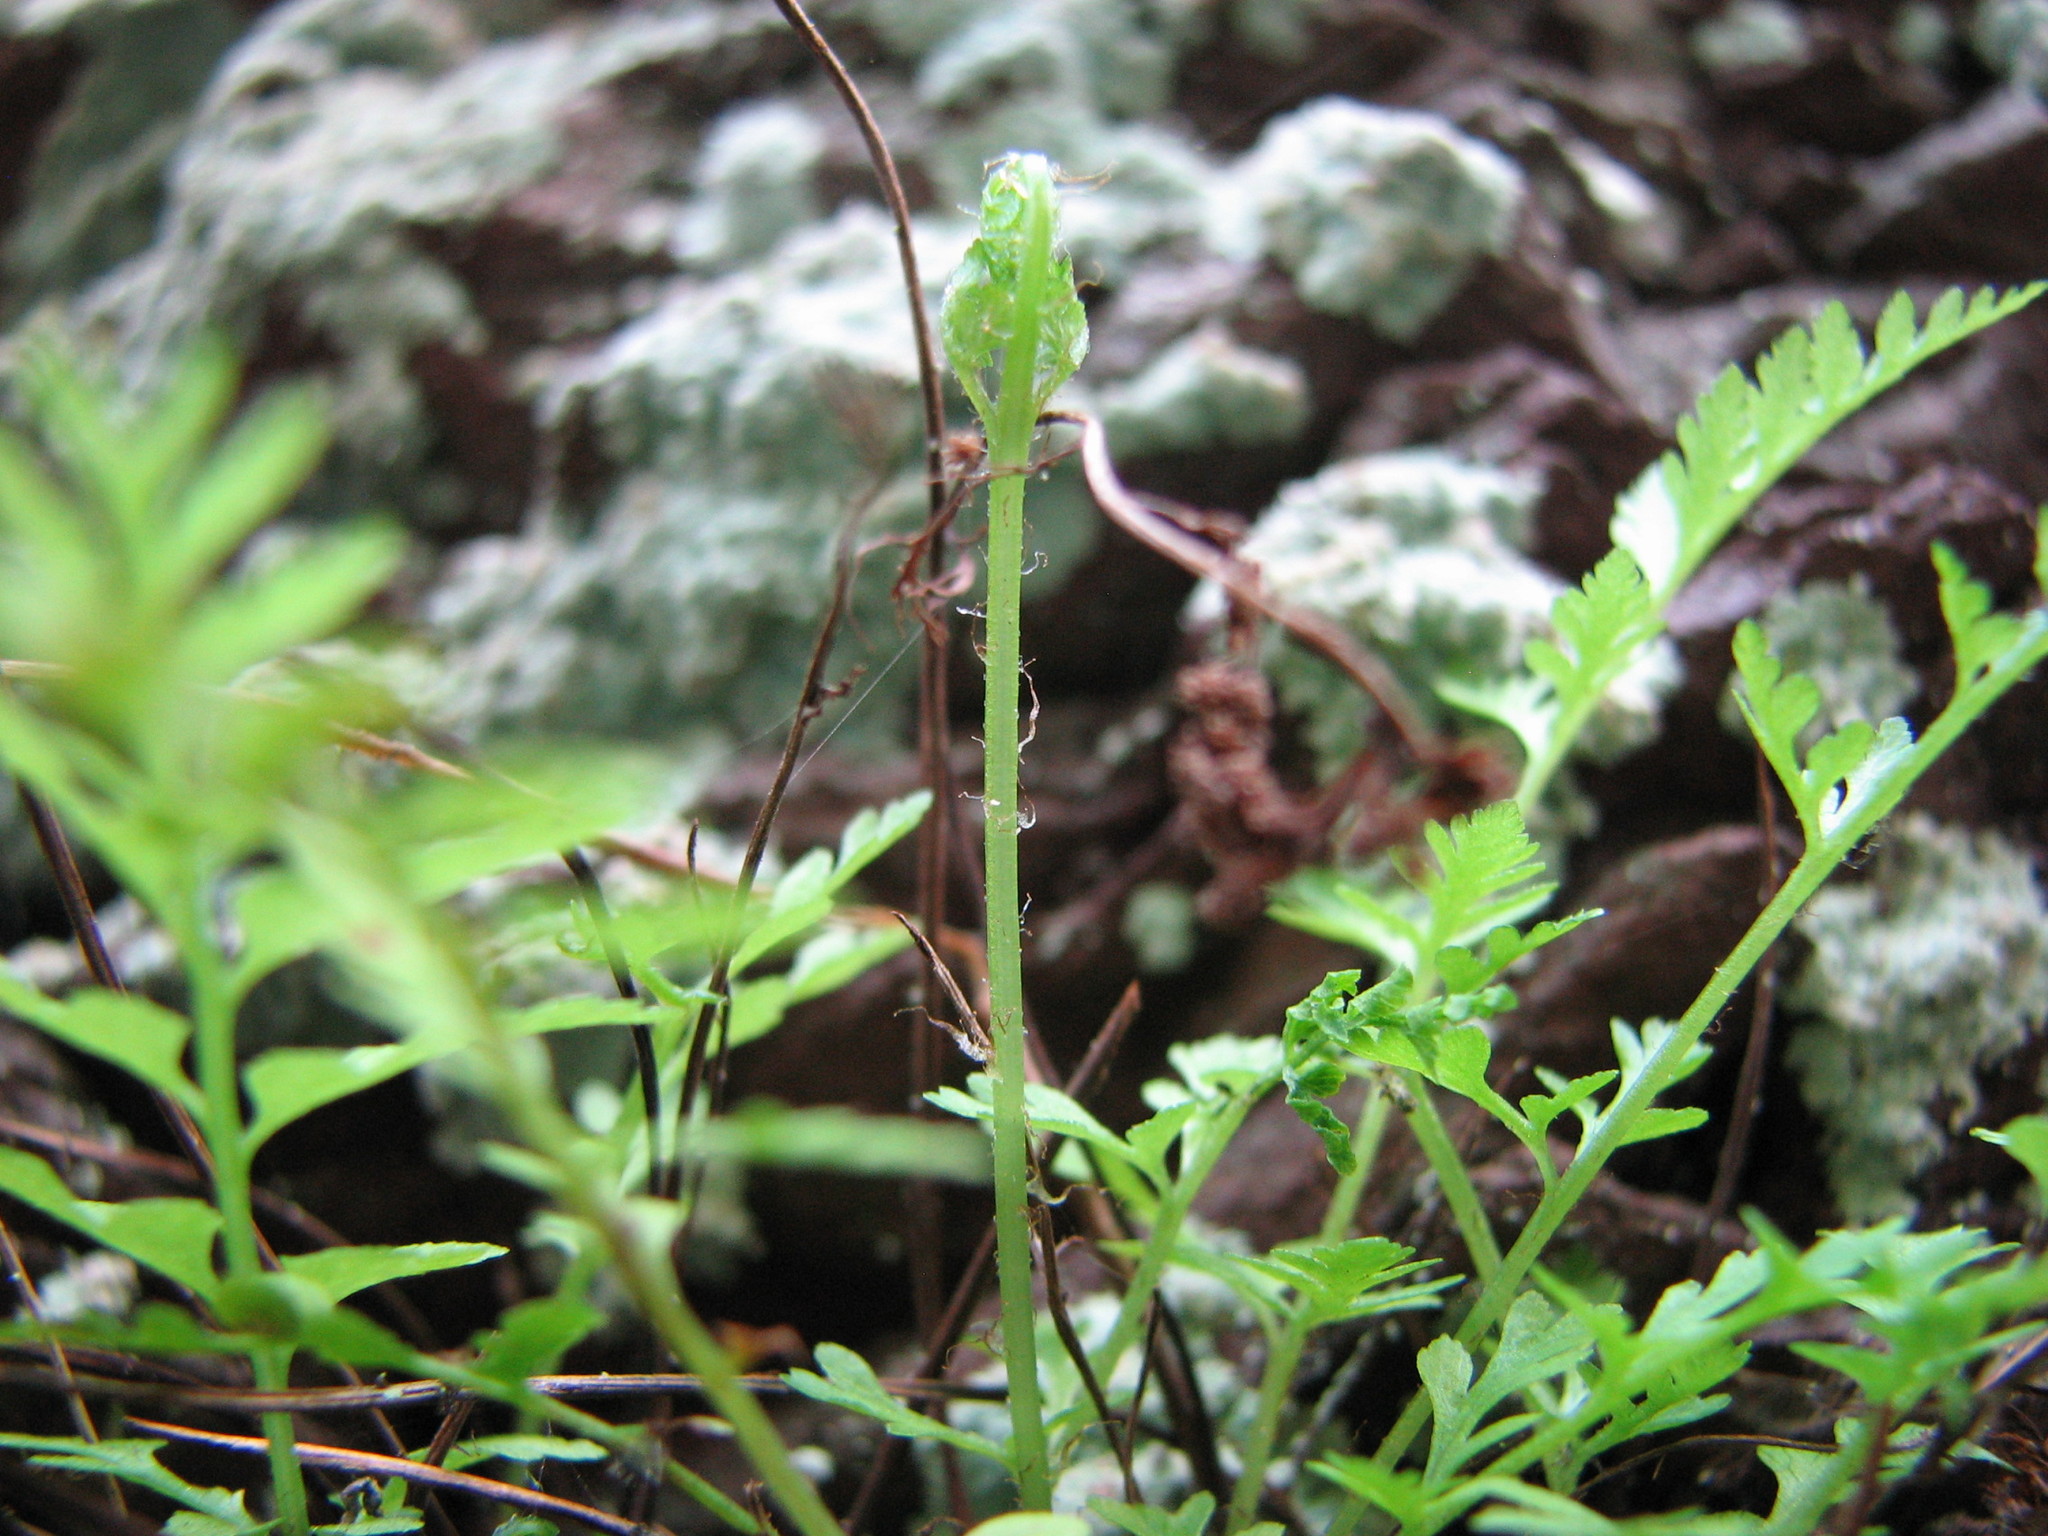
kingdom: Plantae
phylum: Tracheophyta
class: Polypodiopsida
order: Polypodiales
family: Woodsiaceae
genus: Physematium
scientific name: Physematium obtusum
